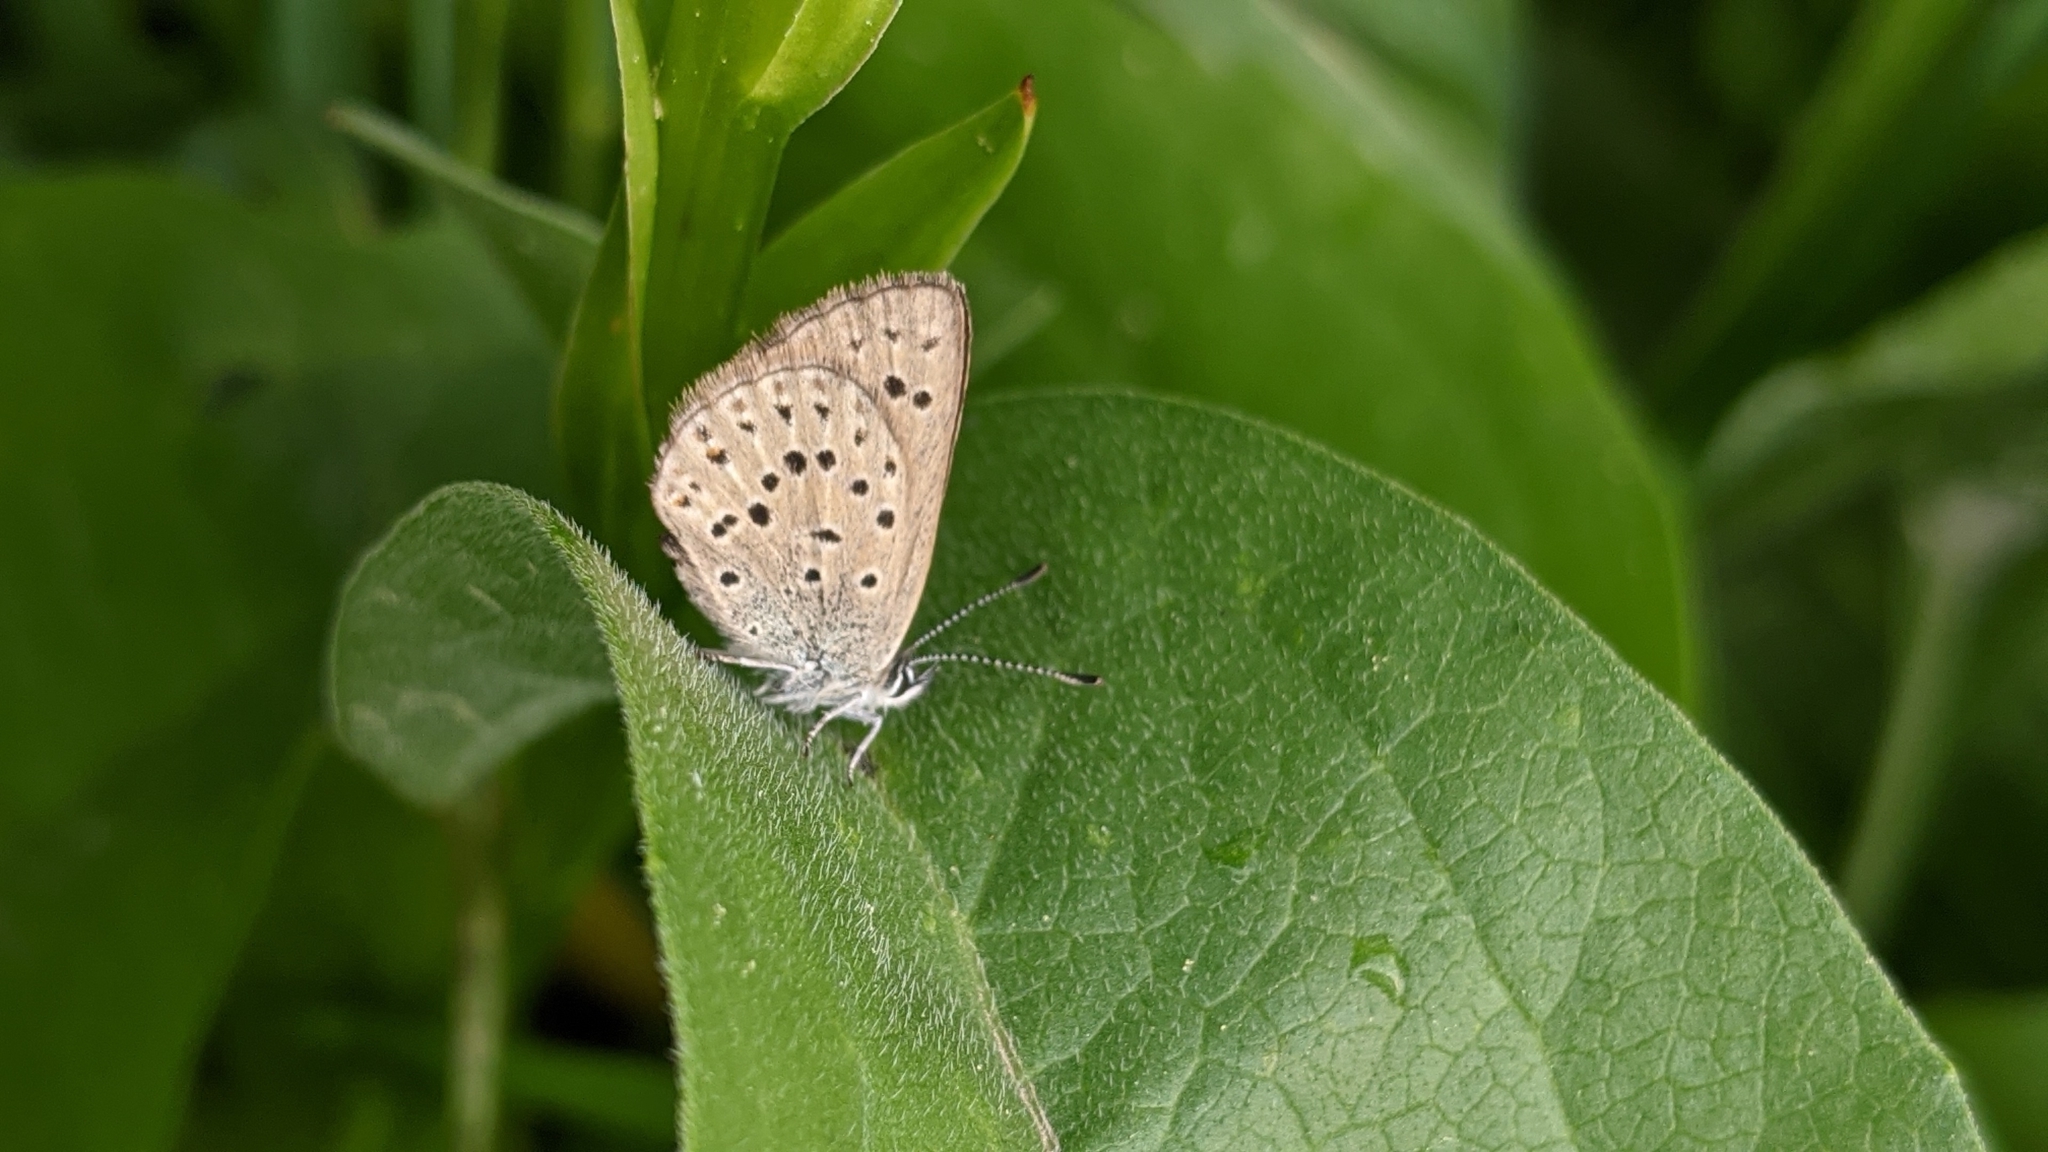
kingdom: Animalia
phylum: Arthropoda
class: Insecta
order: Lepidoptera
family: Lycaenidae
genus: Icaricia
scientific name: Icaricia saepiolus
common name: Greenish blue
